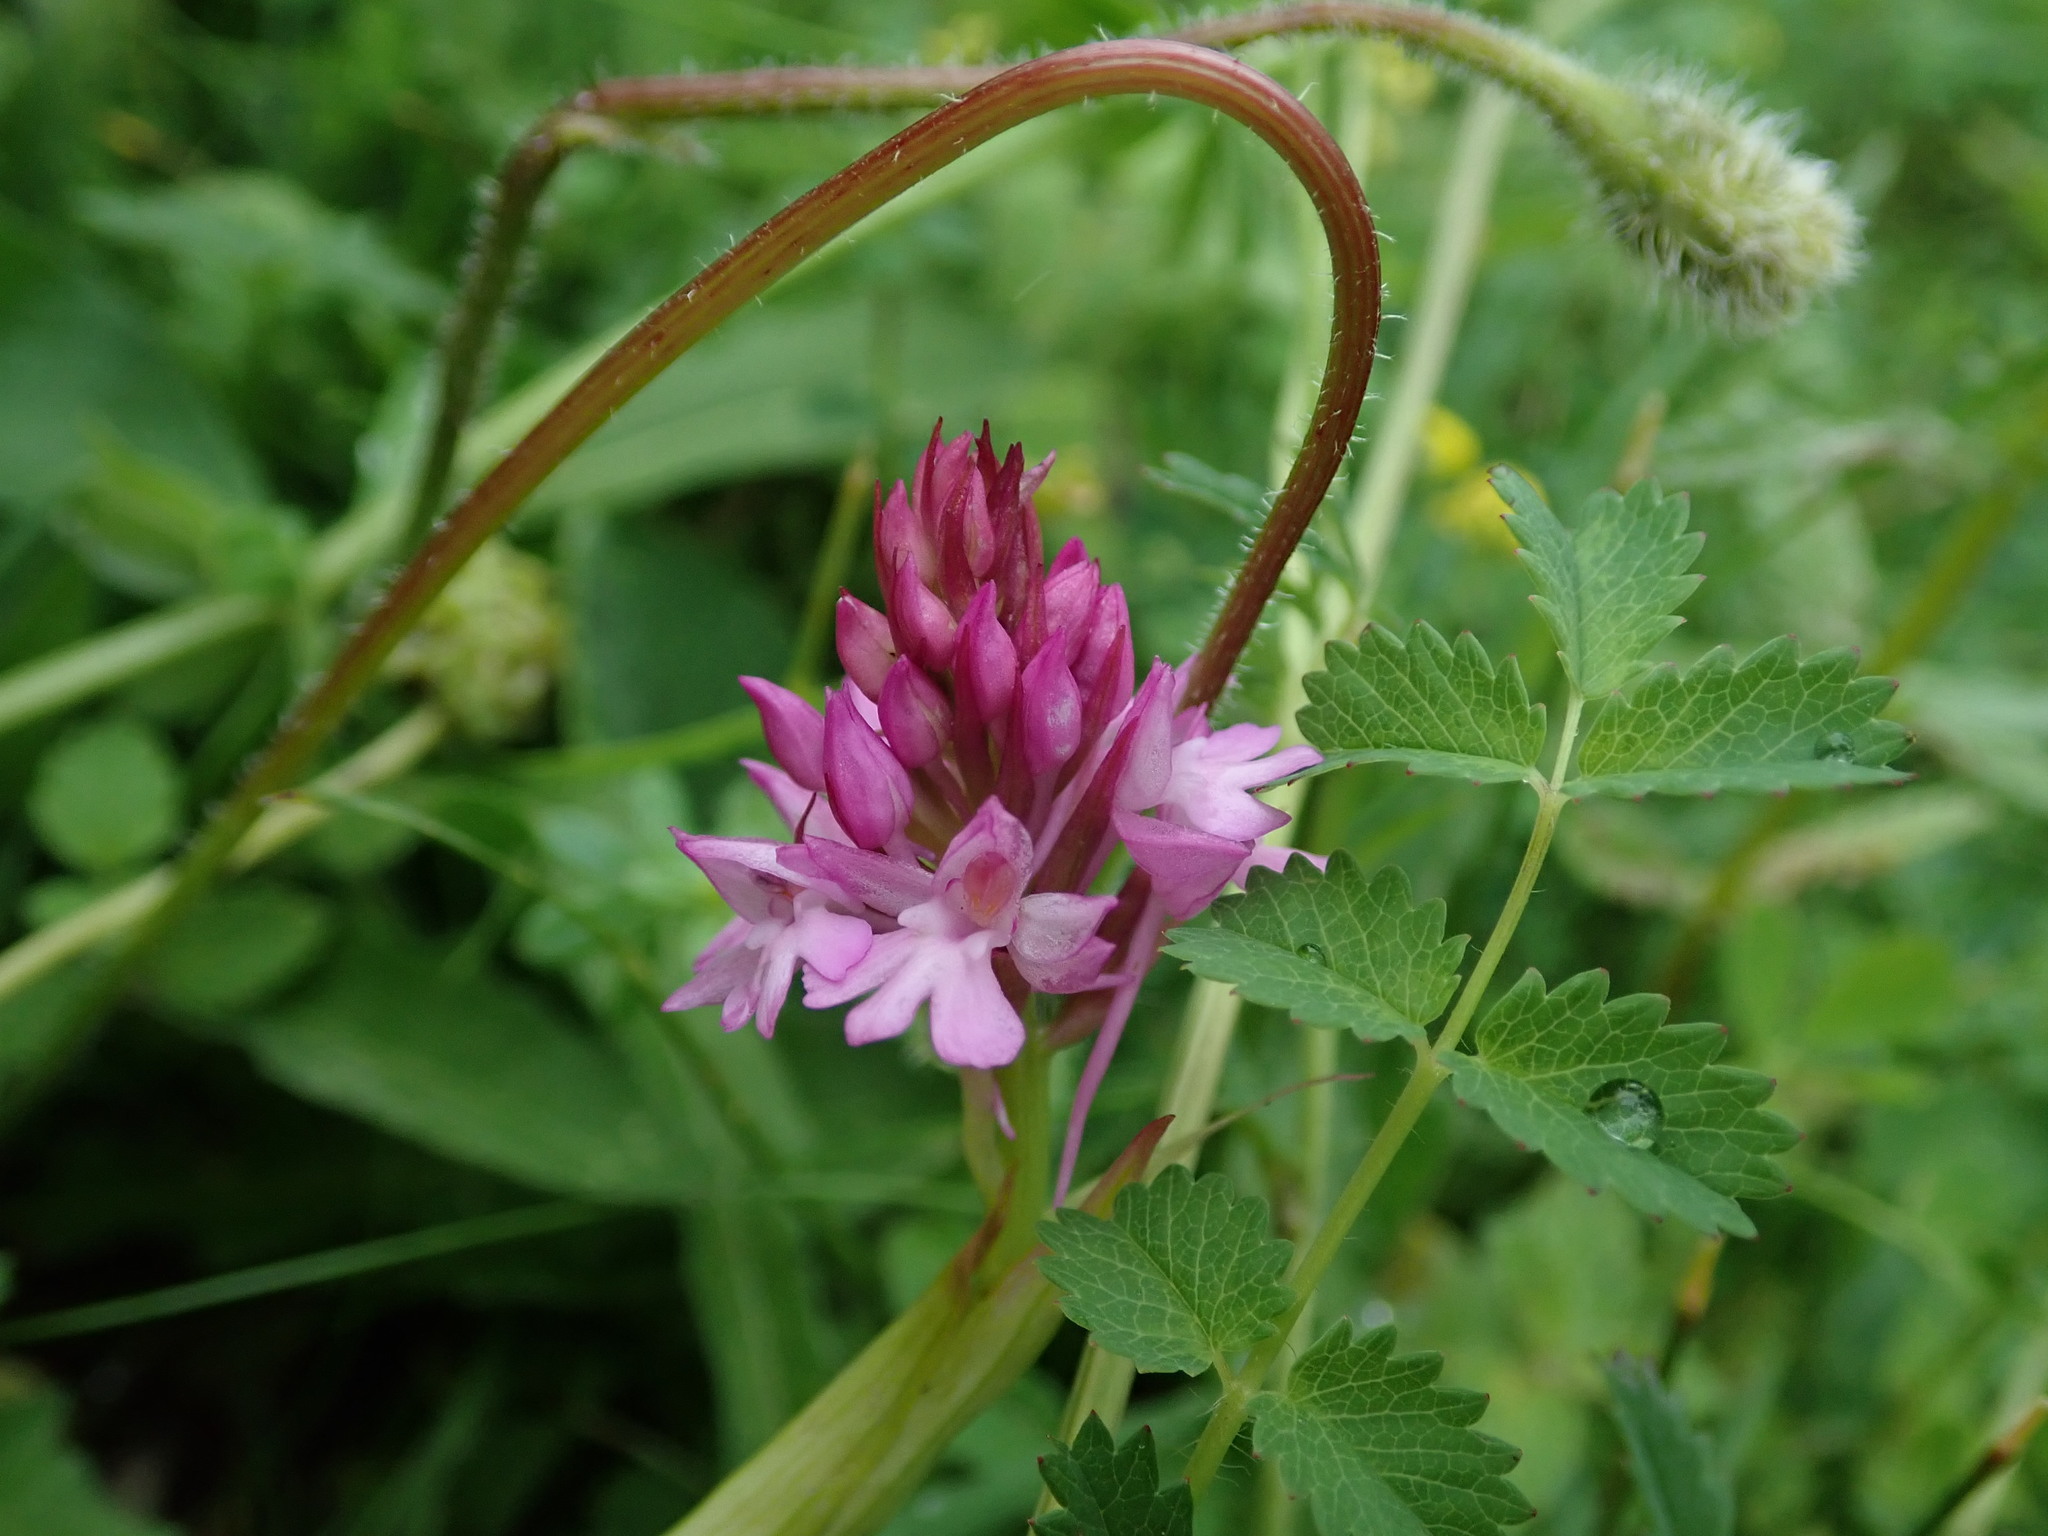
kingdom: Plantae
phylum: Tracheophyta
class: Liliopsida
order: Asparagales
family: Orchidaceae
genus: Anacamptis
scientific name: Anacamptis pyramidalis
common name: Pyramidal orchid
